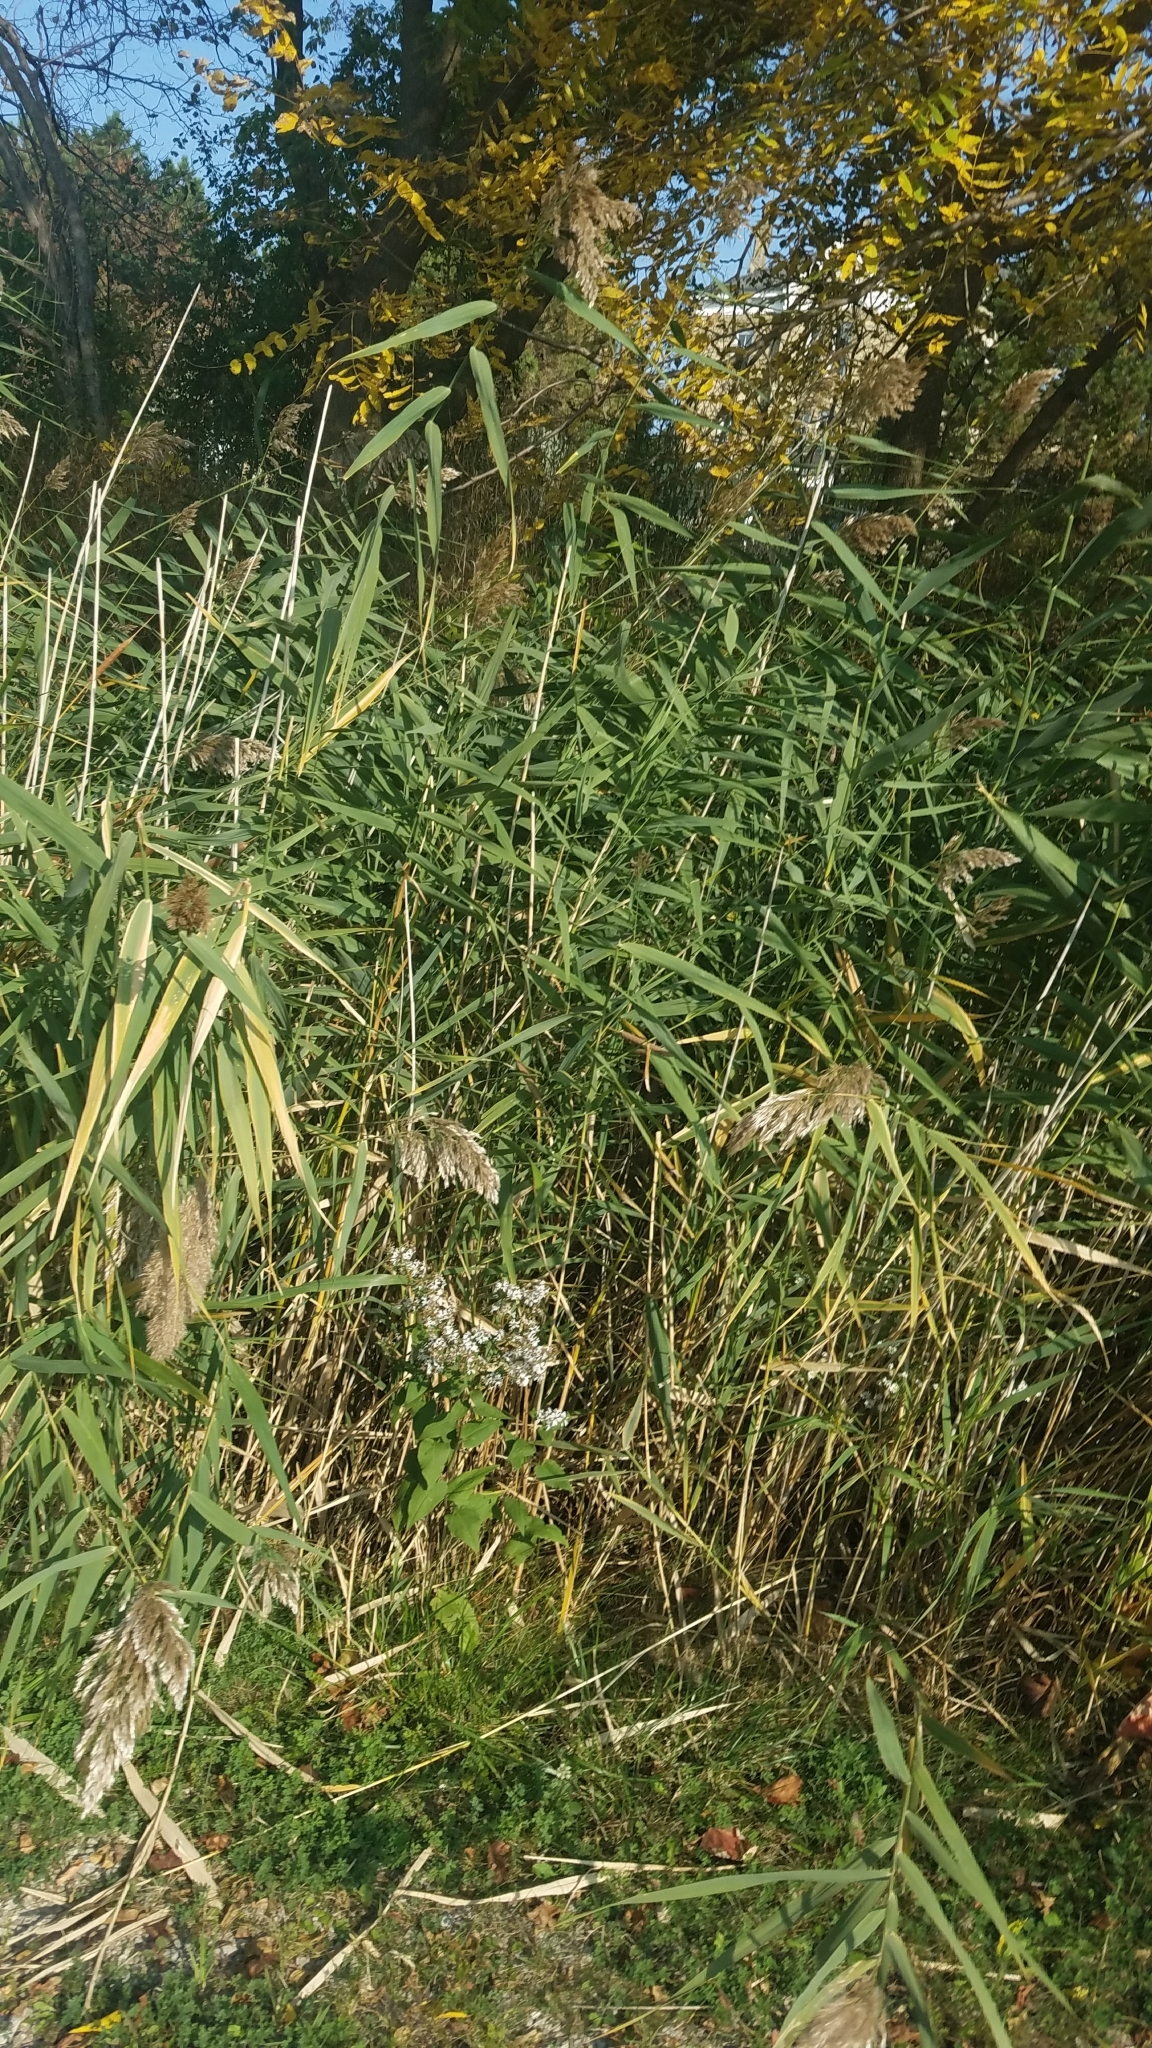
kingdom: Plantae
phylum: Tracheophyta
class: Liliopsida
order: Poales
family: Poaceae
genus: Phragmites
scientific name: Phragmites australis
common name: Common reed
